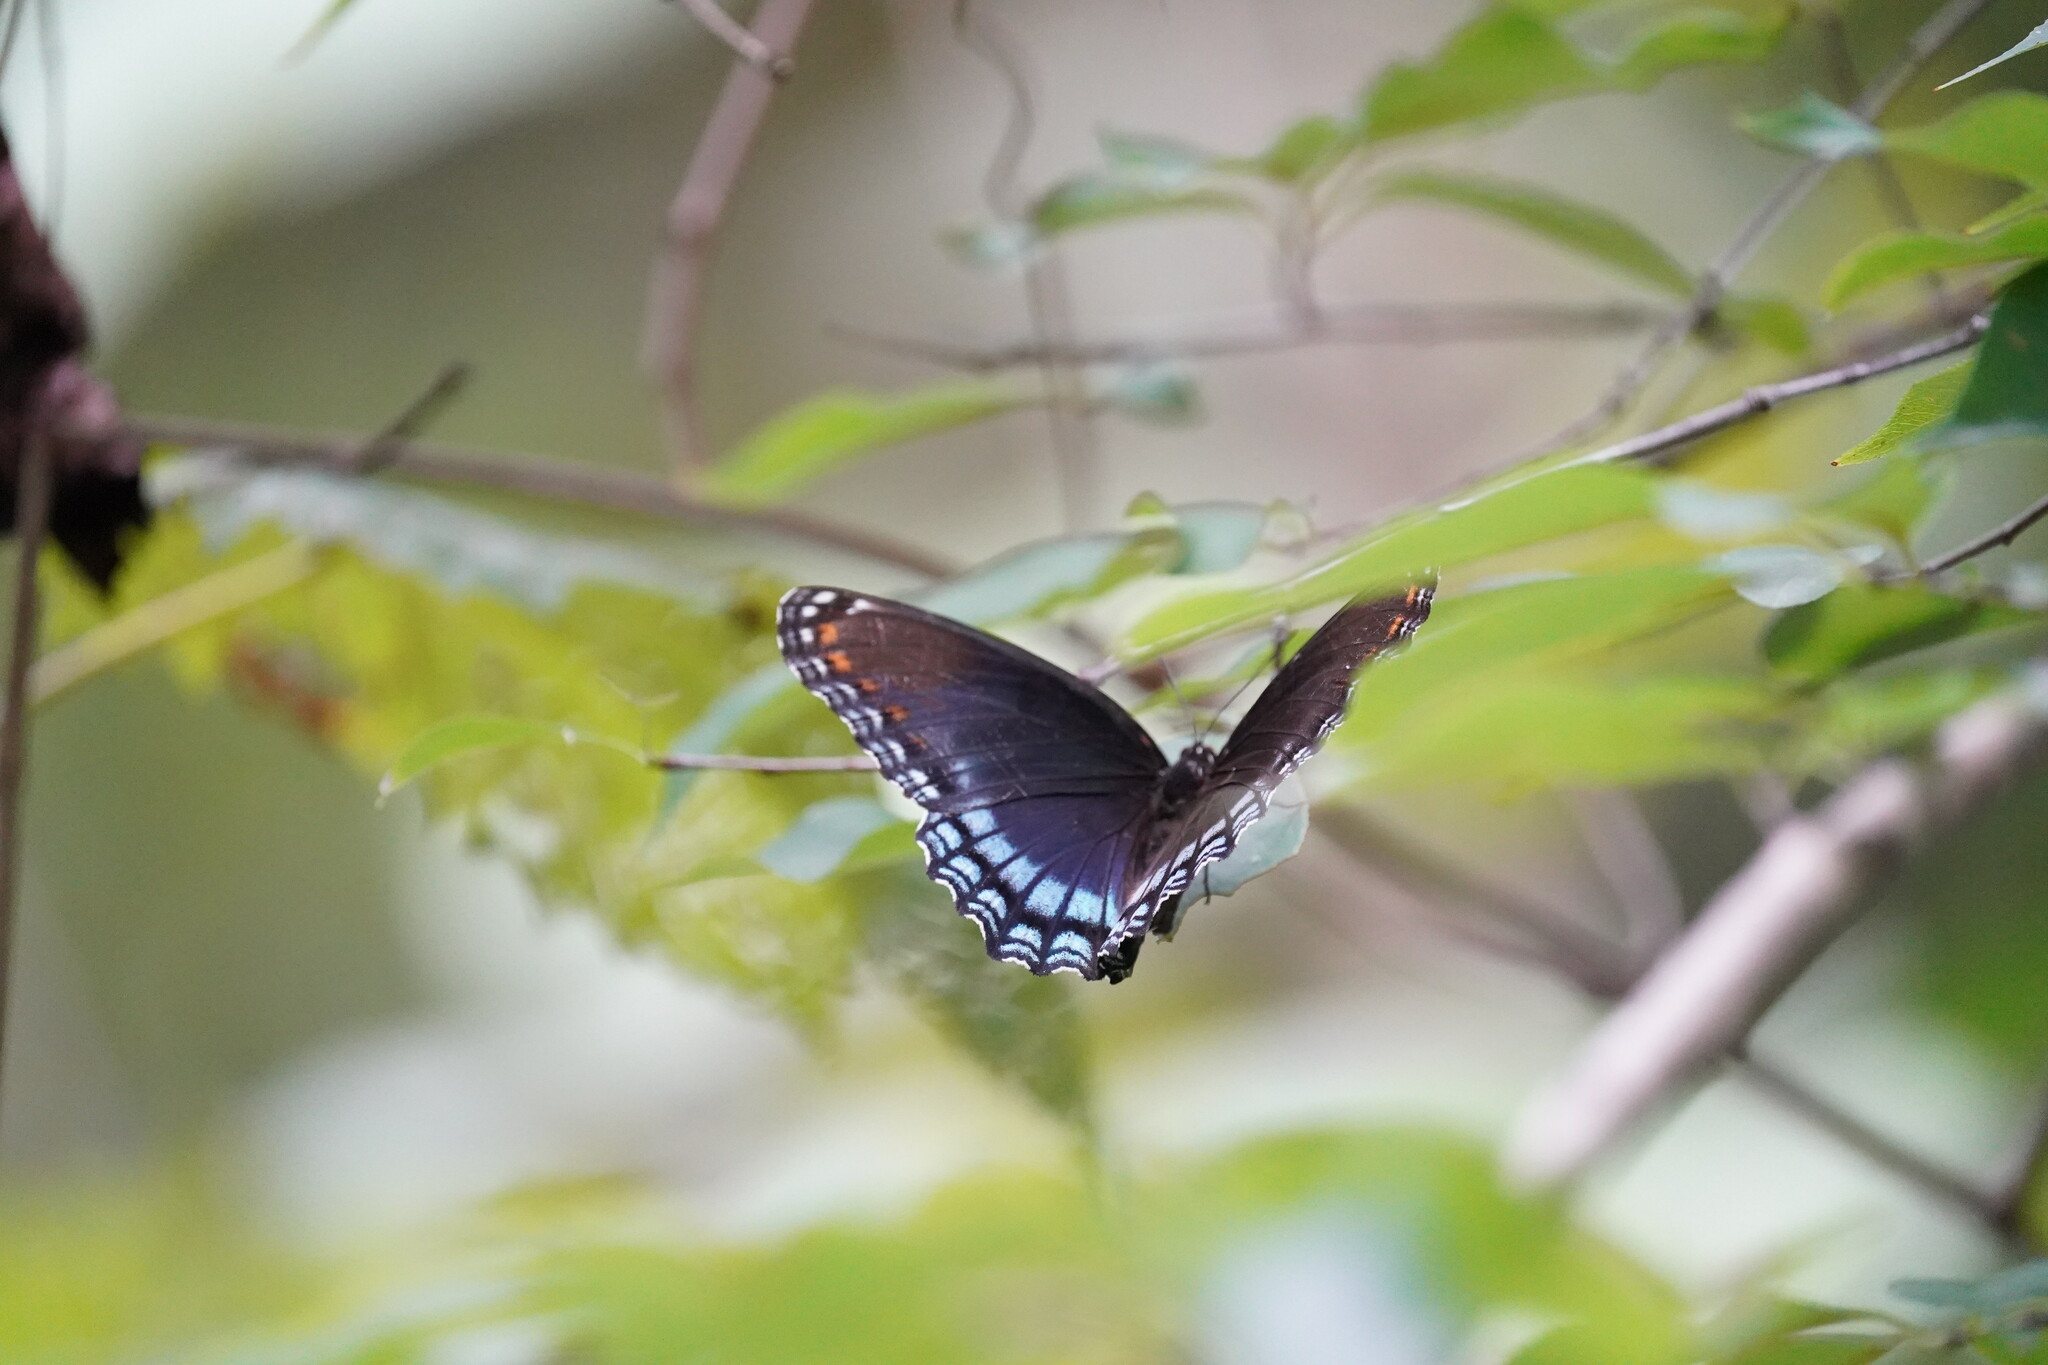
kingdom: Animalia
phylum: Arthropoda
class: Insecta
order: Lepidoptera
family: Nymphalidae
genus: Limenitis
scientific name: Limenitis arthemis
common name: Red-spotted admiral
